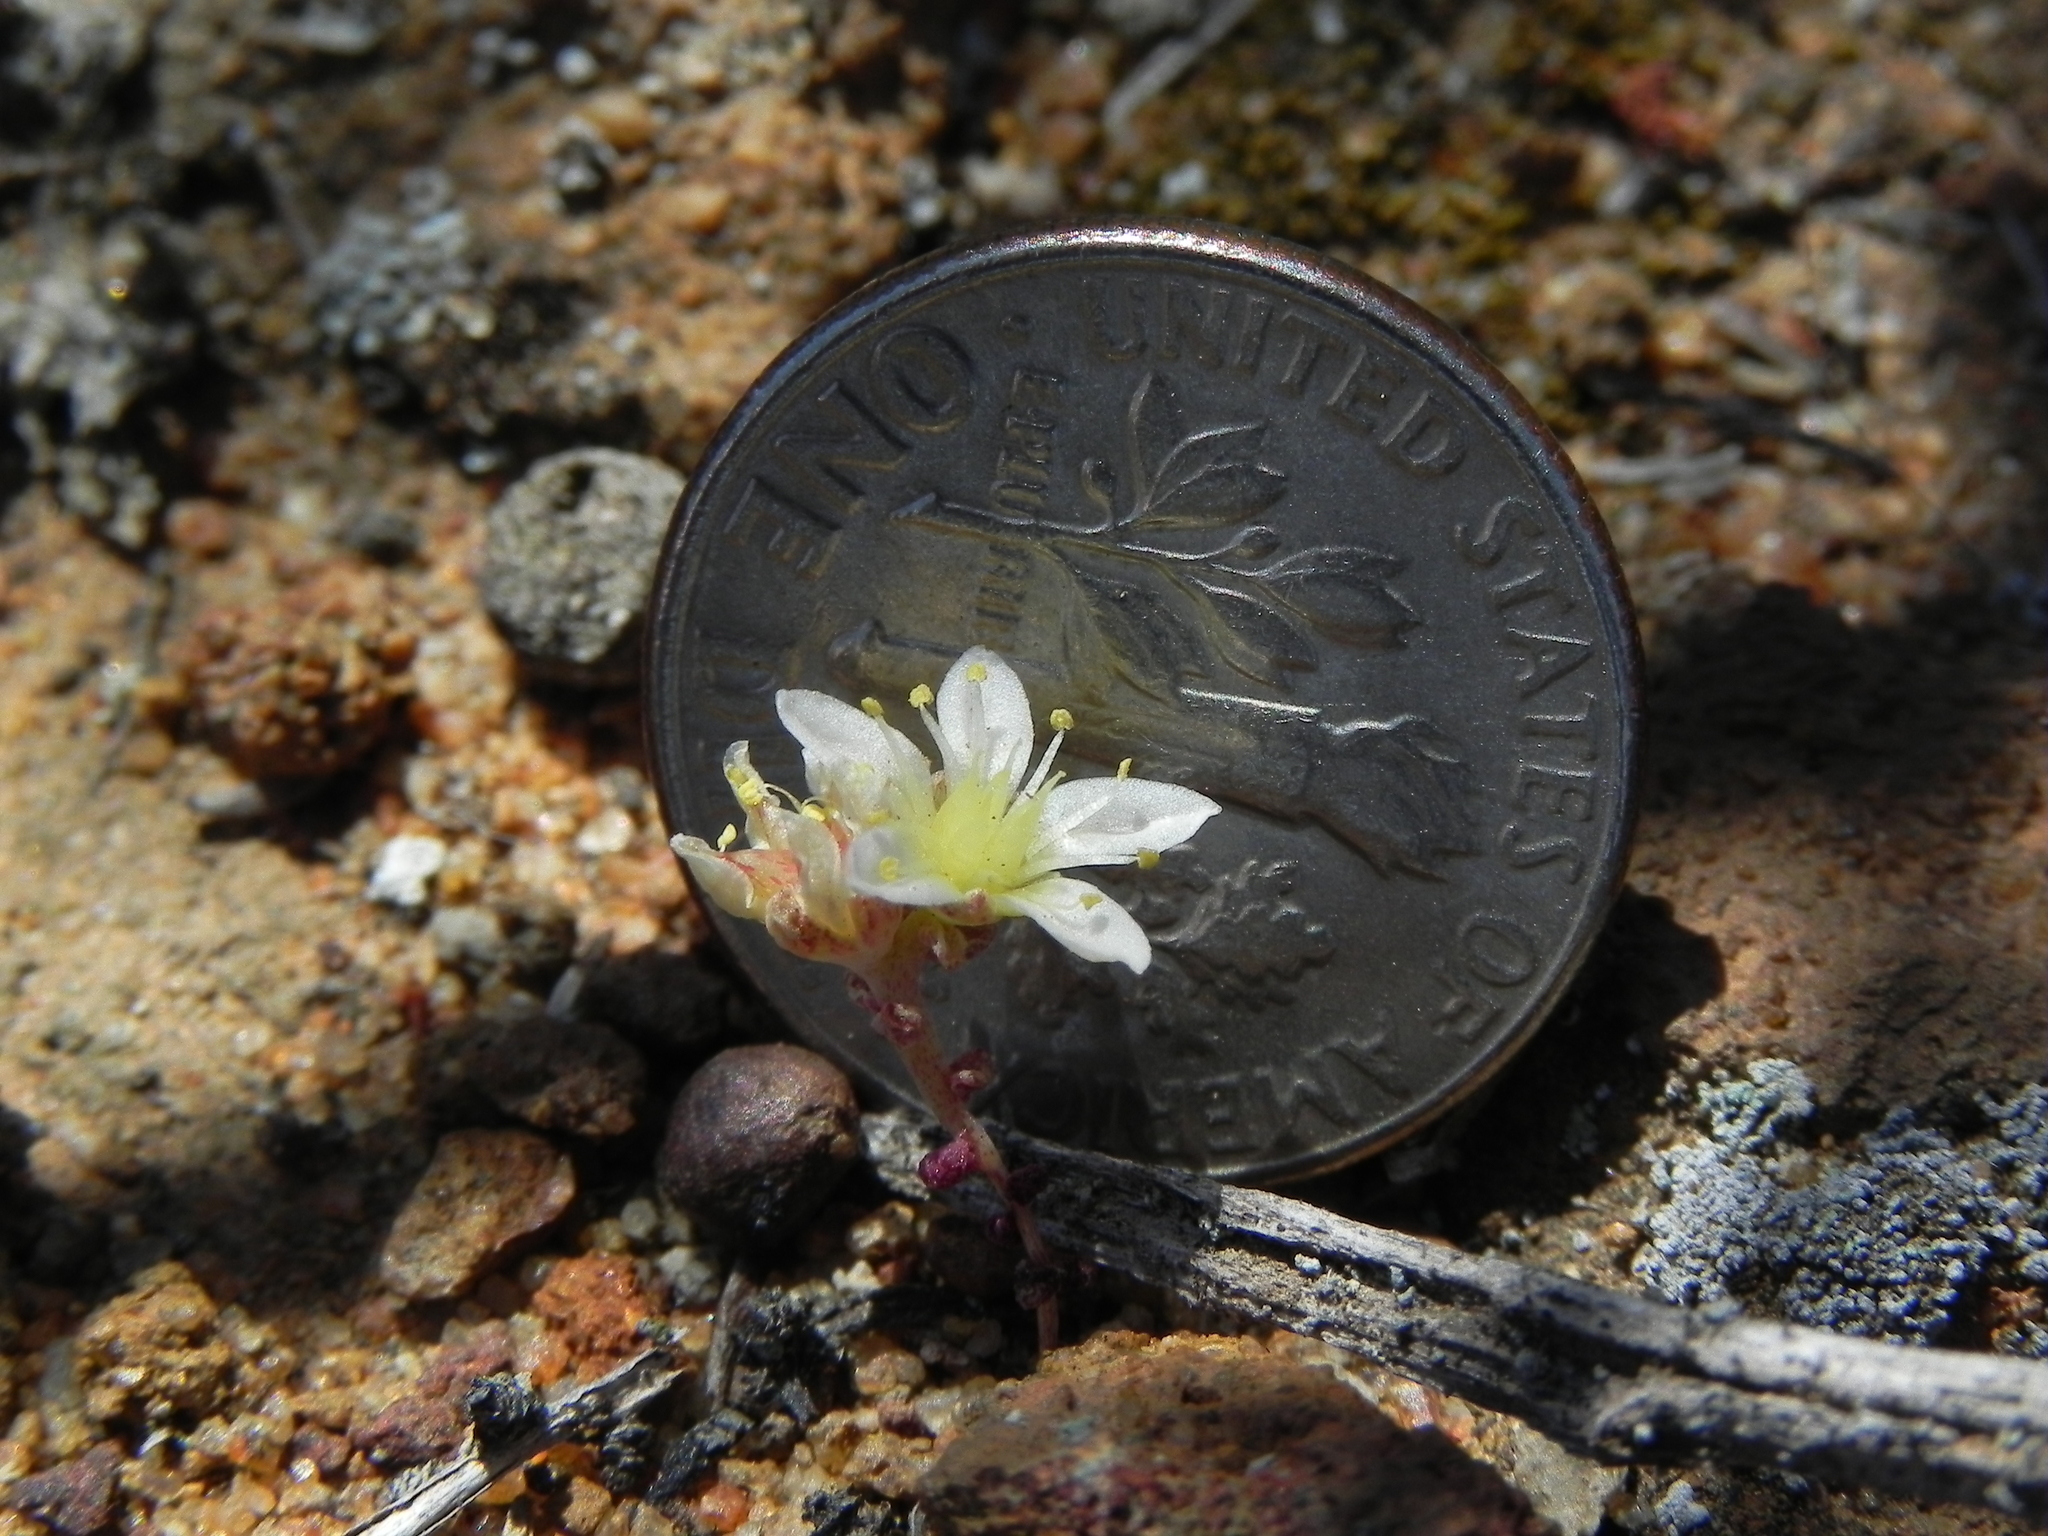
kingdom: Plantae
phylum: Tracheophyta
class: Magnoliopsida
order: Saxifragales
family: Crassulaceae
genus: Dudleya
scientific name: Dudleya blochmaniae
